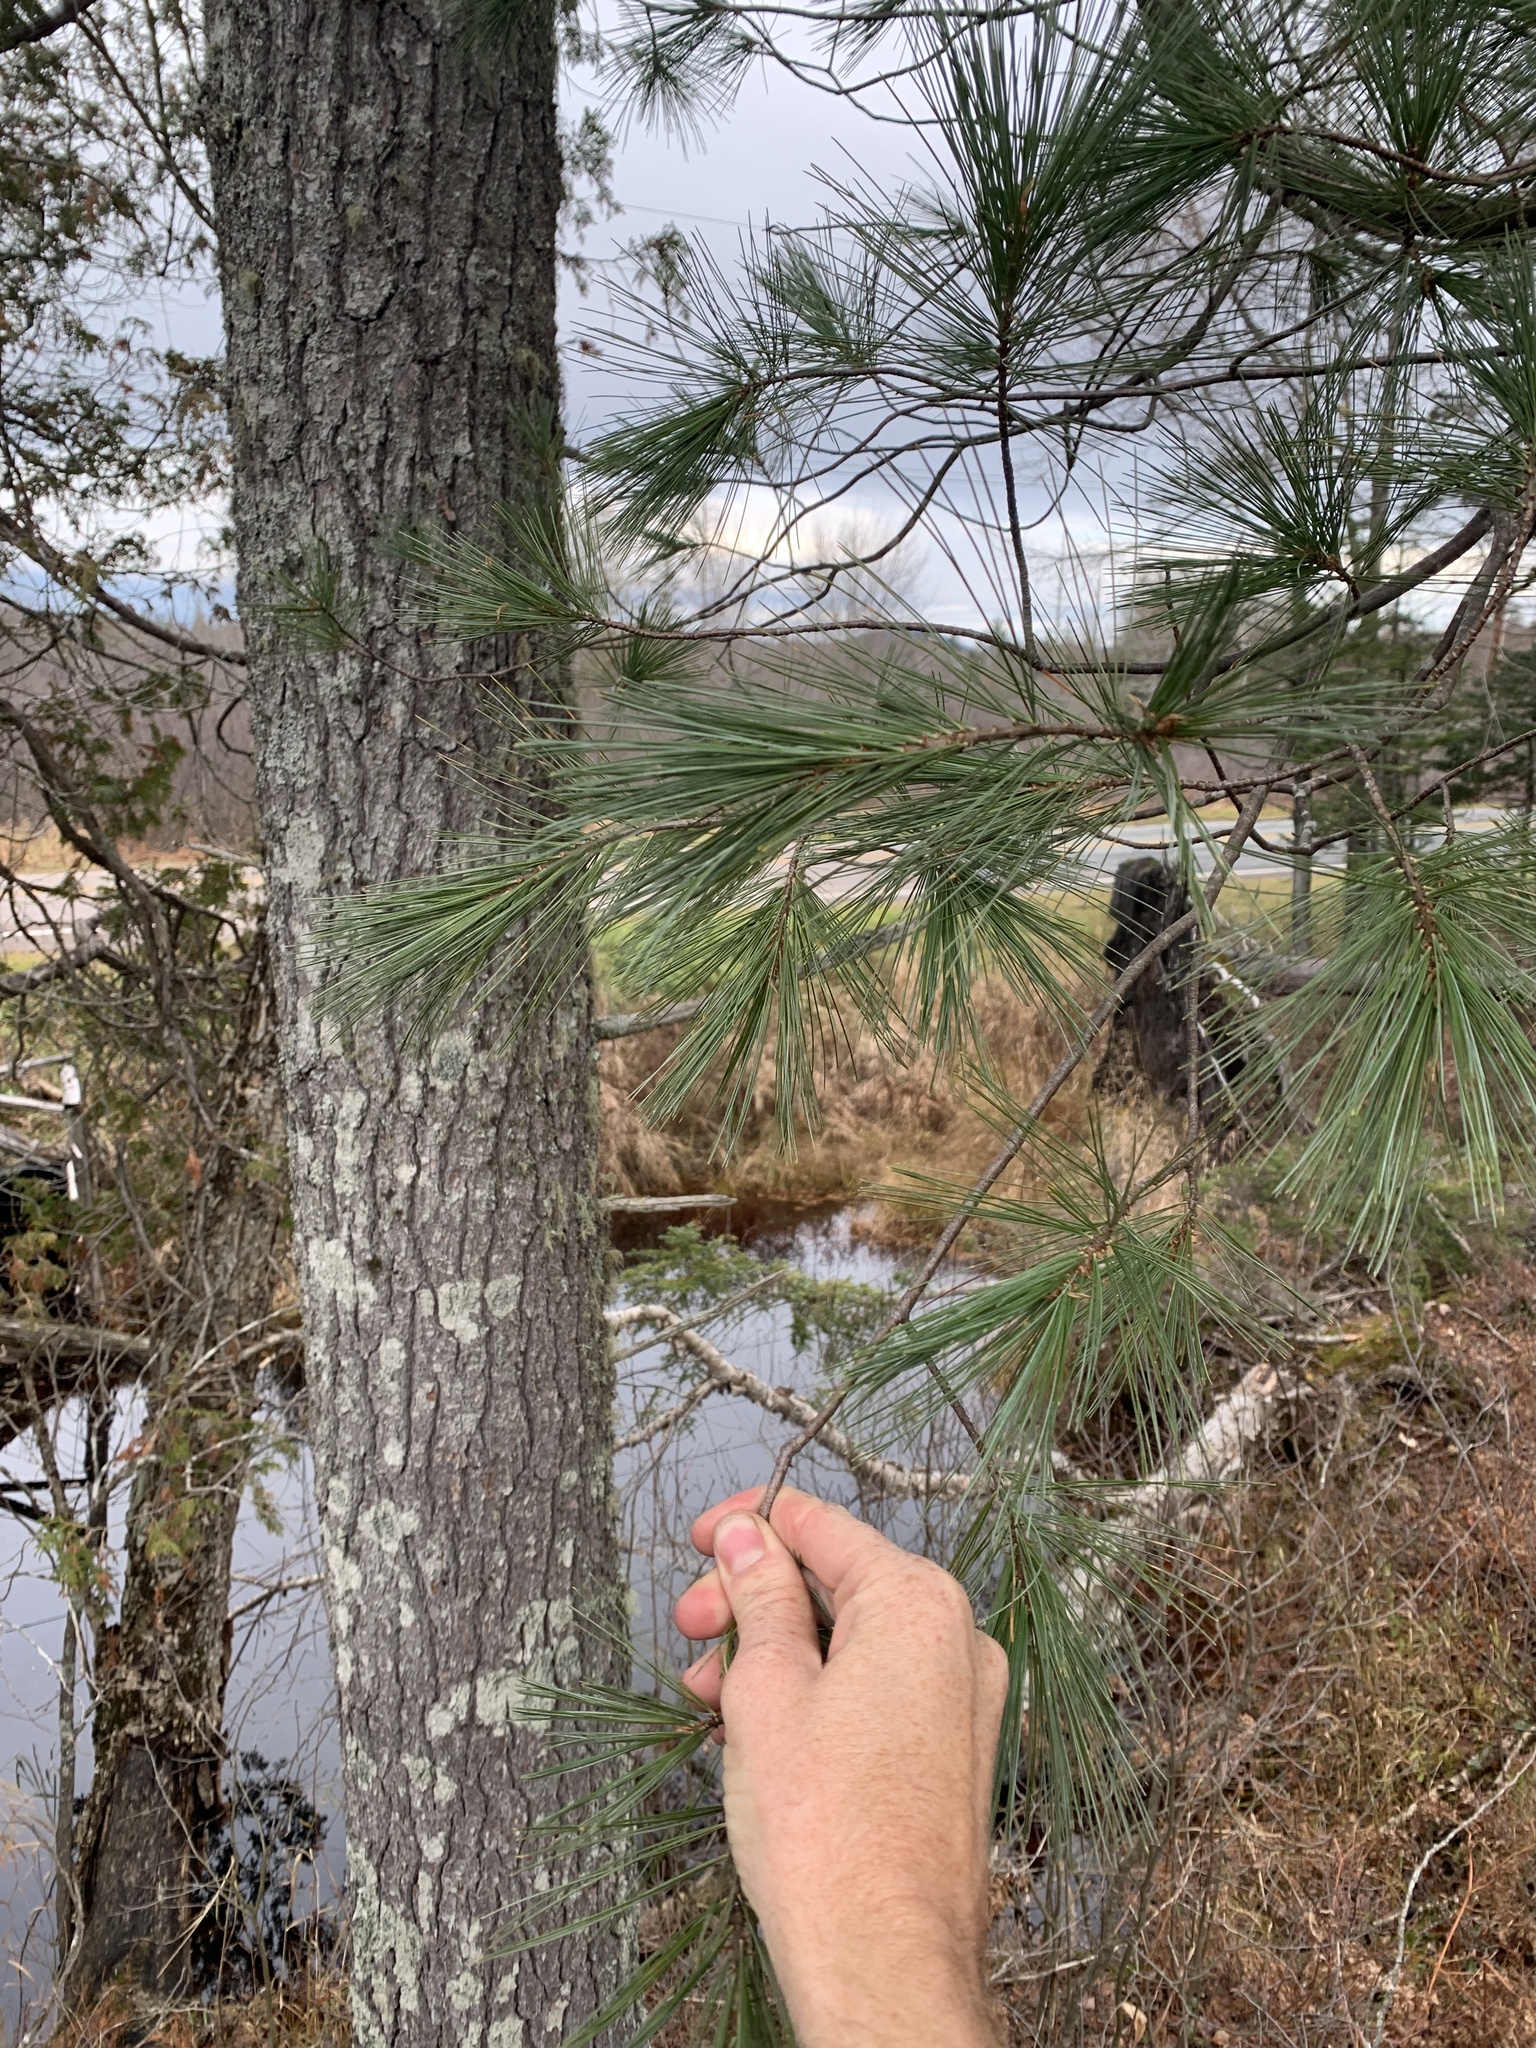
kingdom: Plantae
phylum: Tracheophyta
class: Pinopsida
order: Pinales
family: Pinaceae
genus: Pinus
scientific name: Pinus strobus
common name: Weymouth pine
